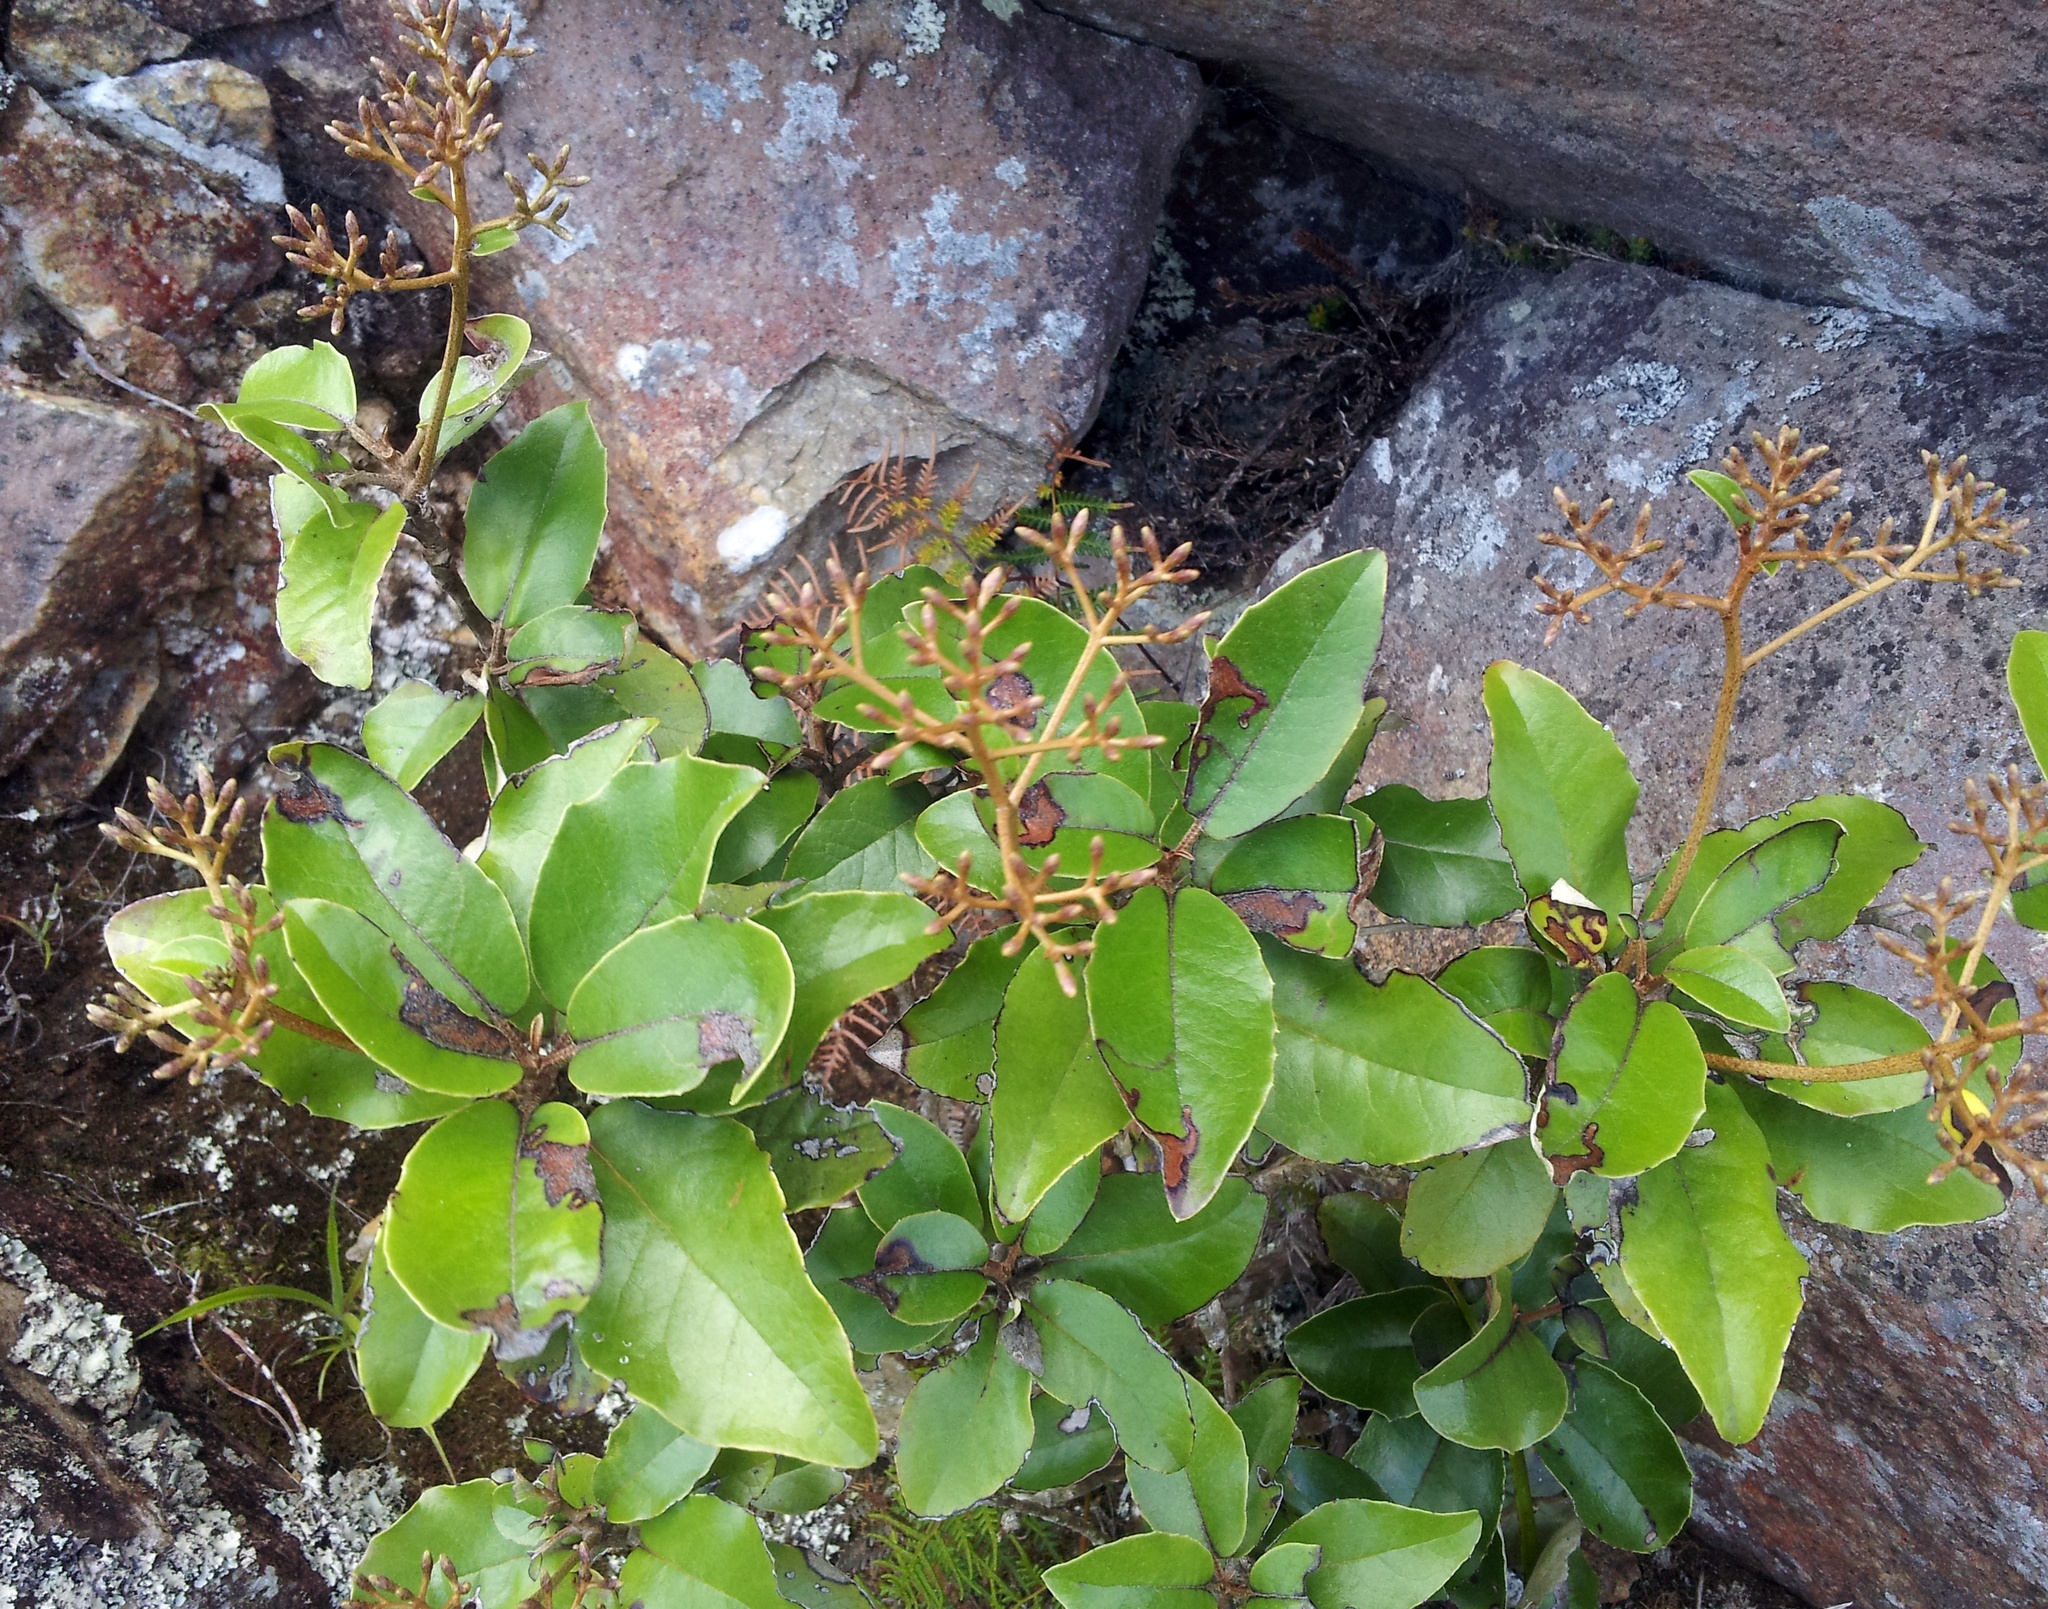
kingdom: Plantae
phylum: Tracheophyta
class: Magnoliopsida
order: Asterales
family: Asteraceae
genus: Olearia
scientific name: Olearia furfuracea
